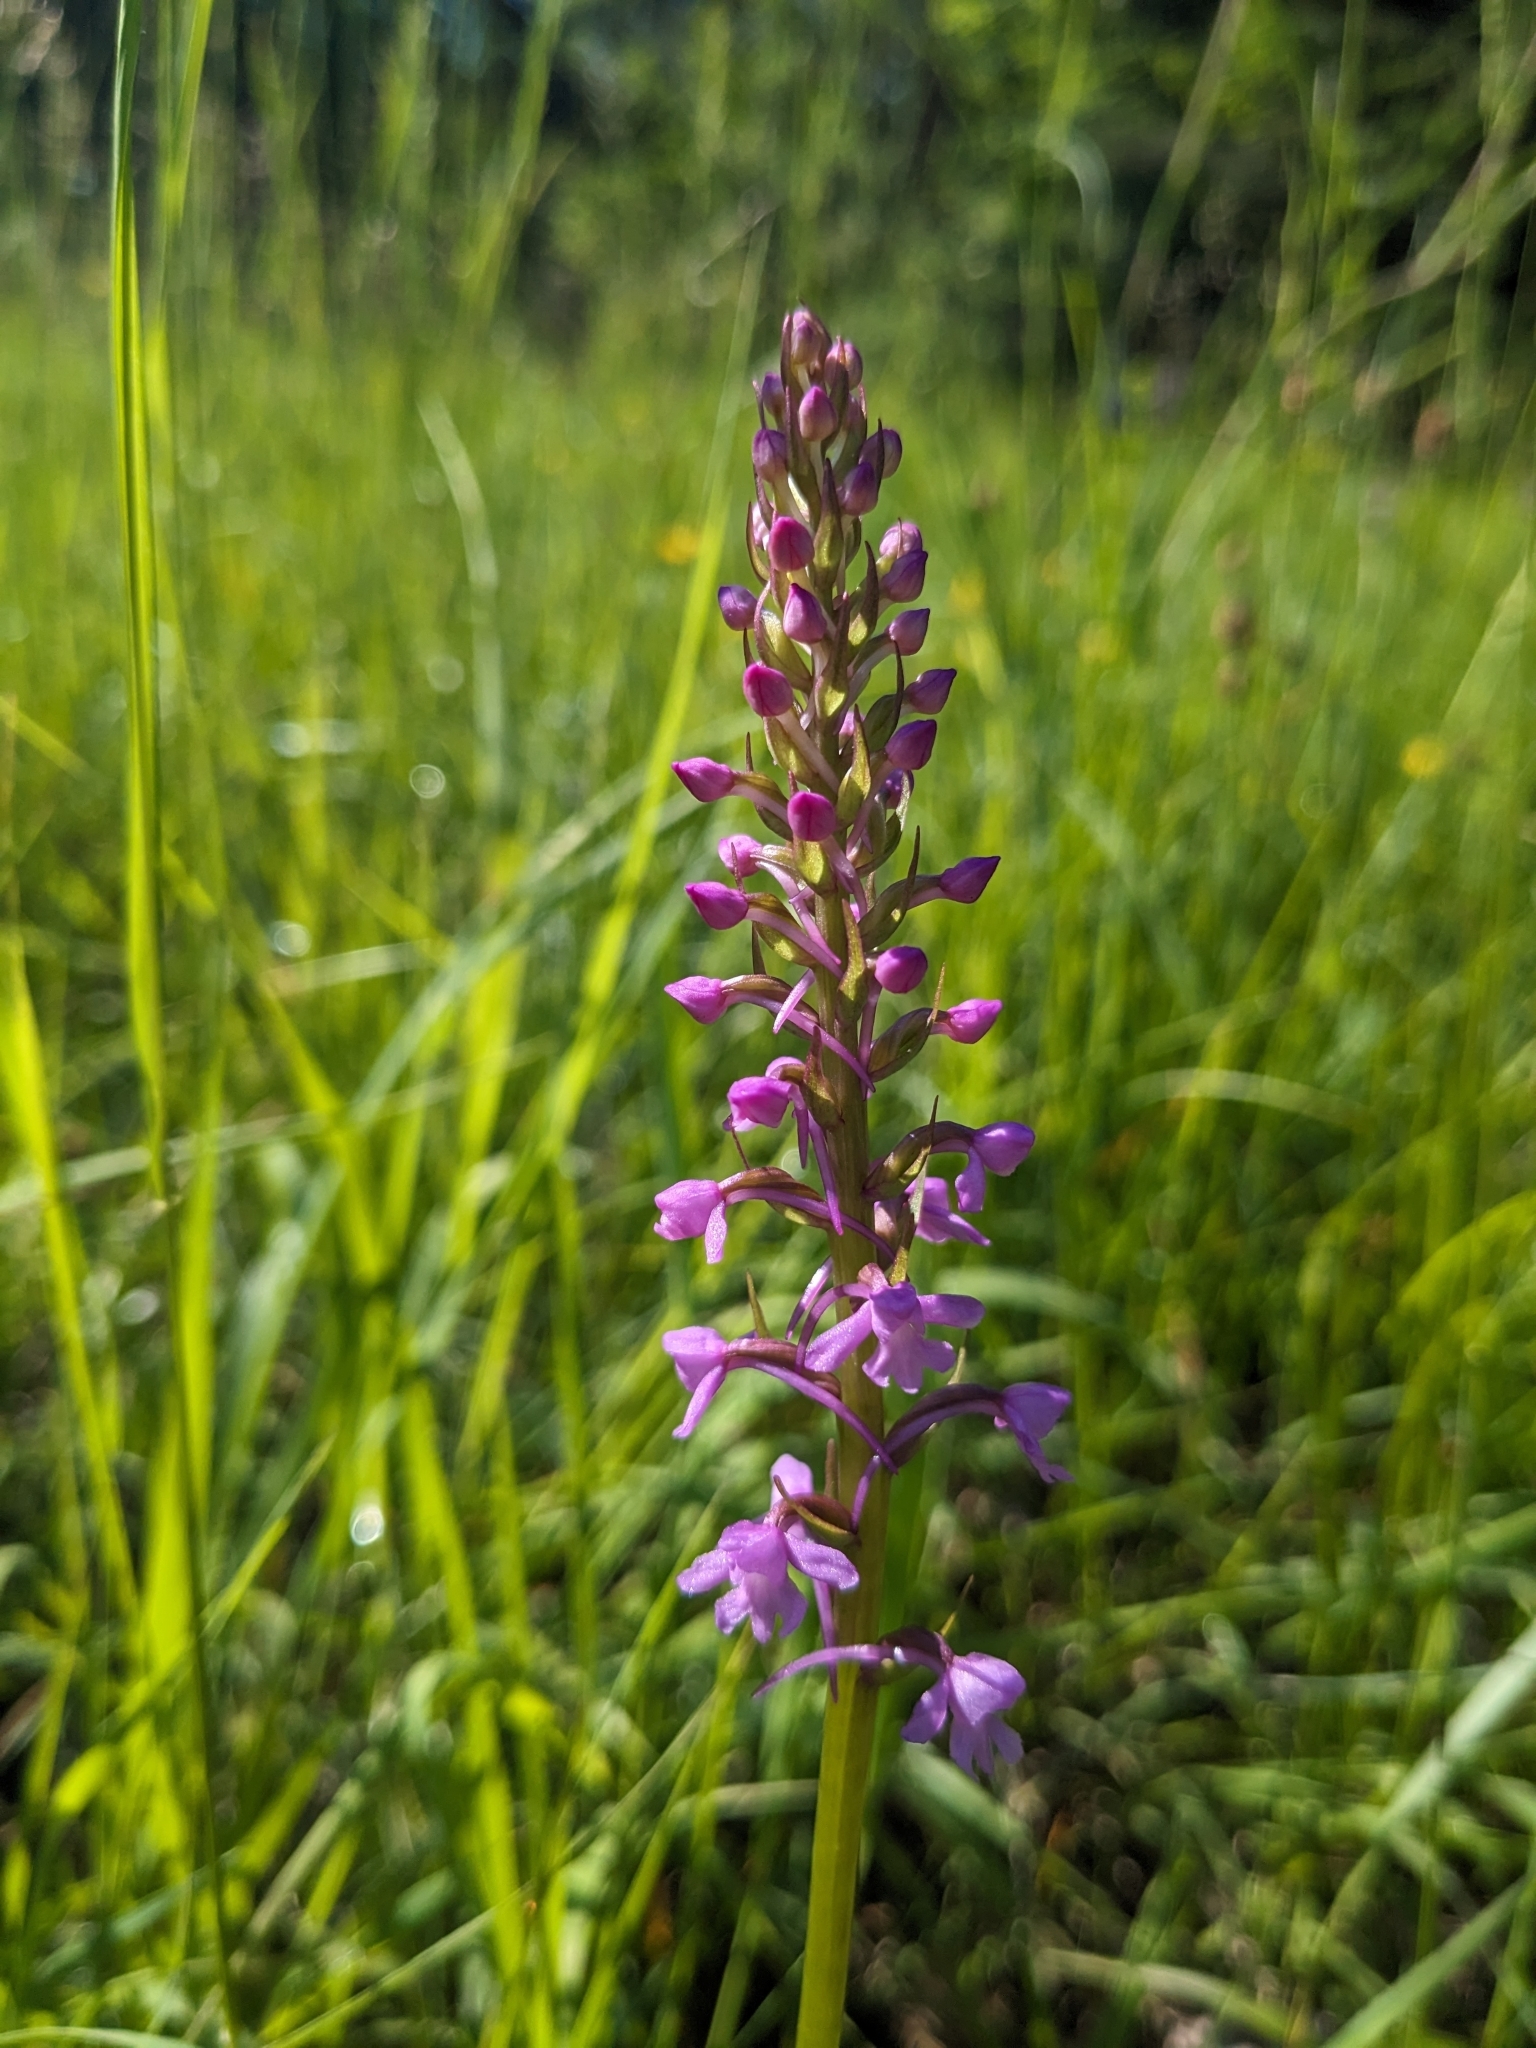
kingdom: Plantae
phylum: Tracheophyta
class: Liliopsida
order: Asparagales
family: Orchidaceae
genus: Gymnadenia
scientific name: Gymnadenia conopsea
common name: Fragrant orchid
